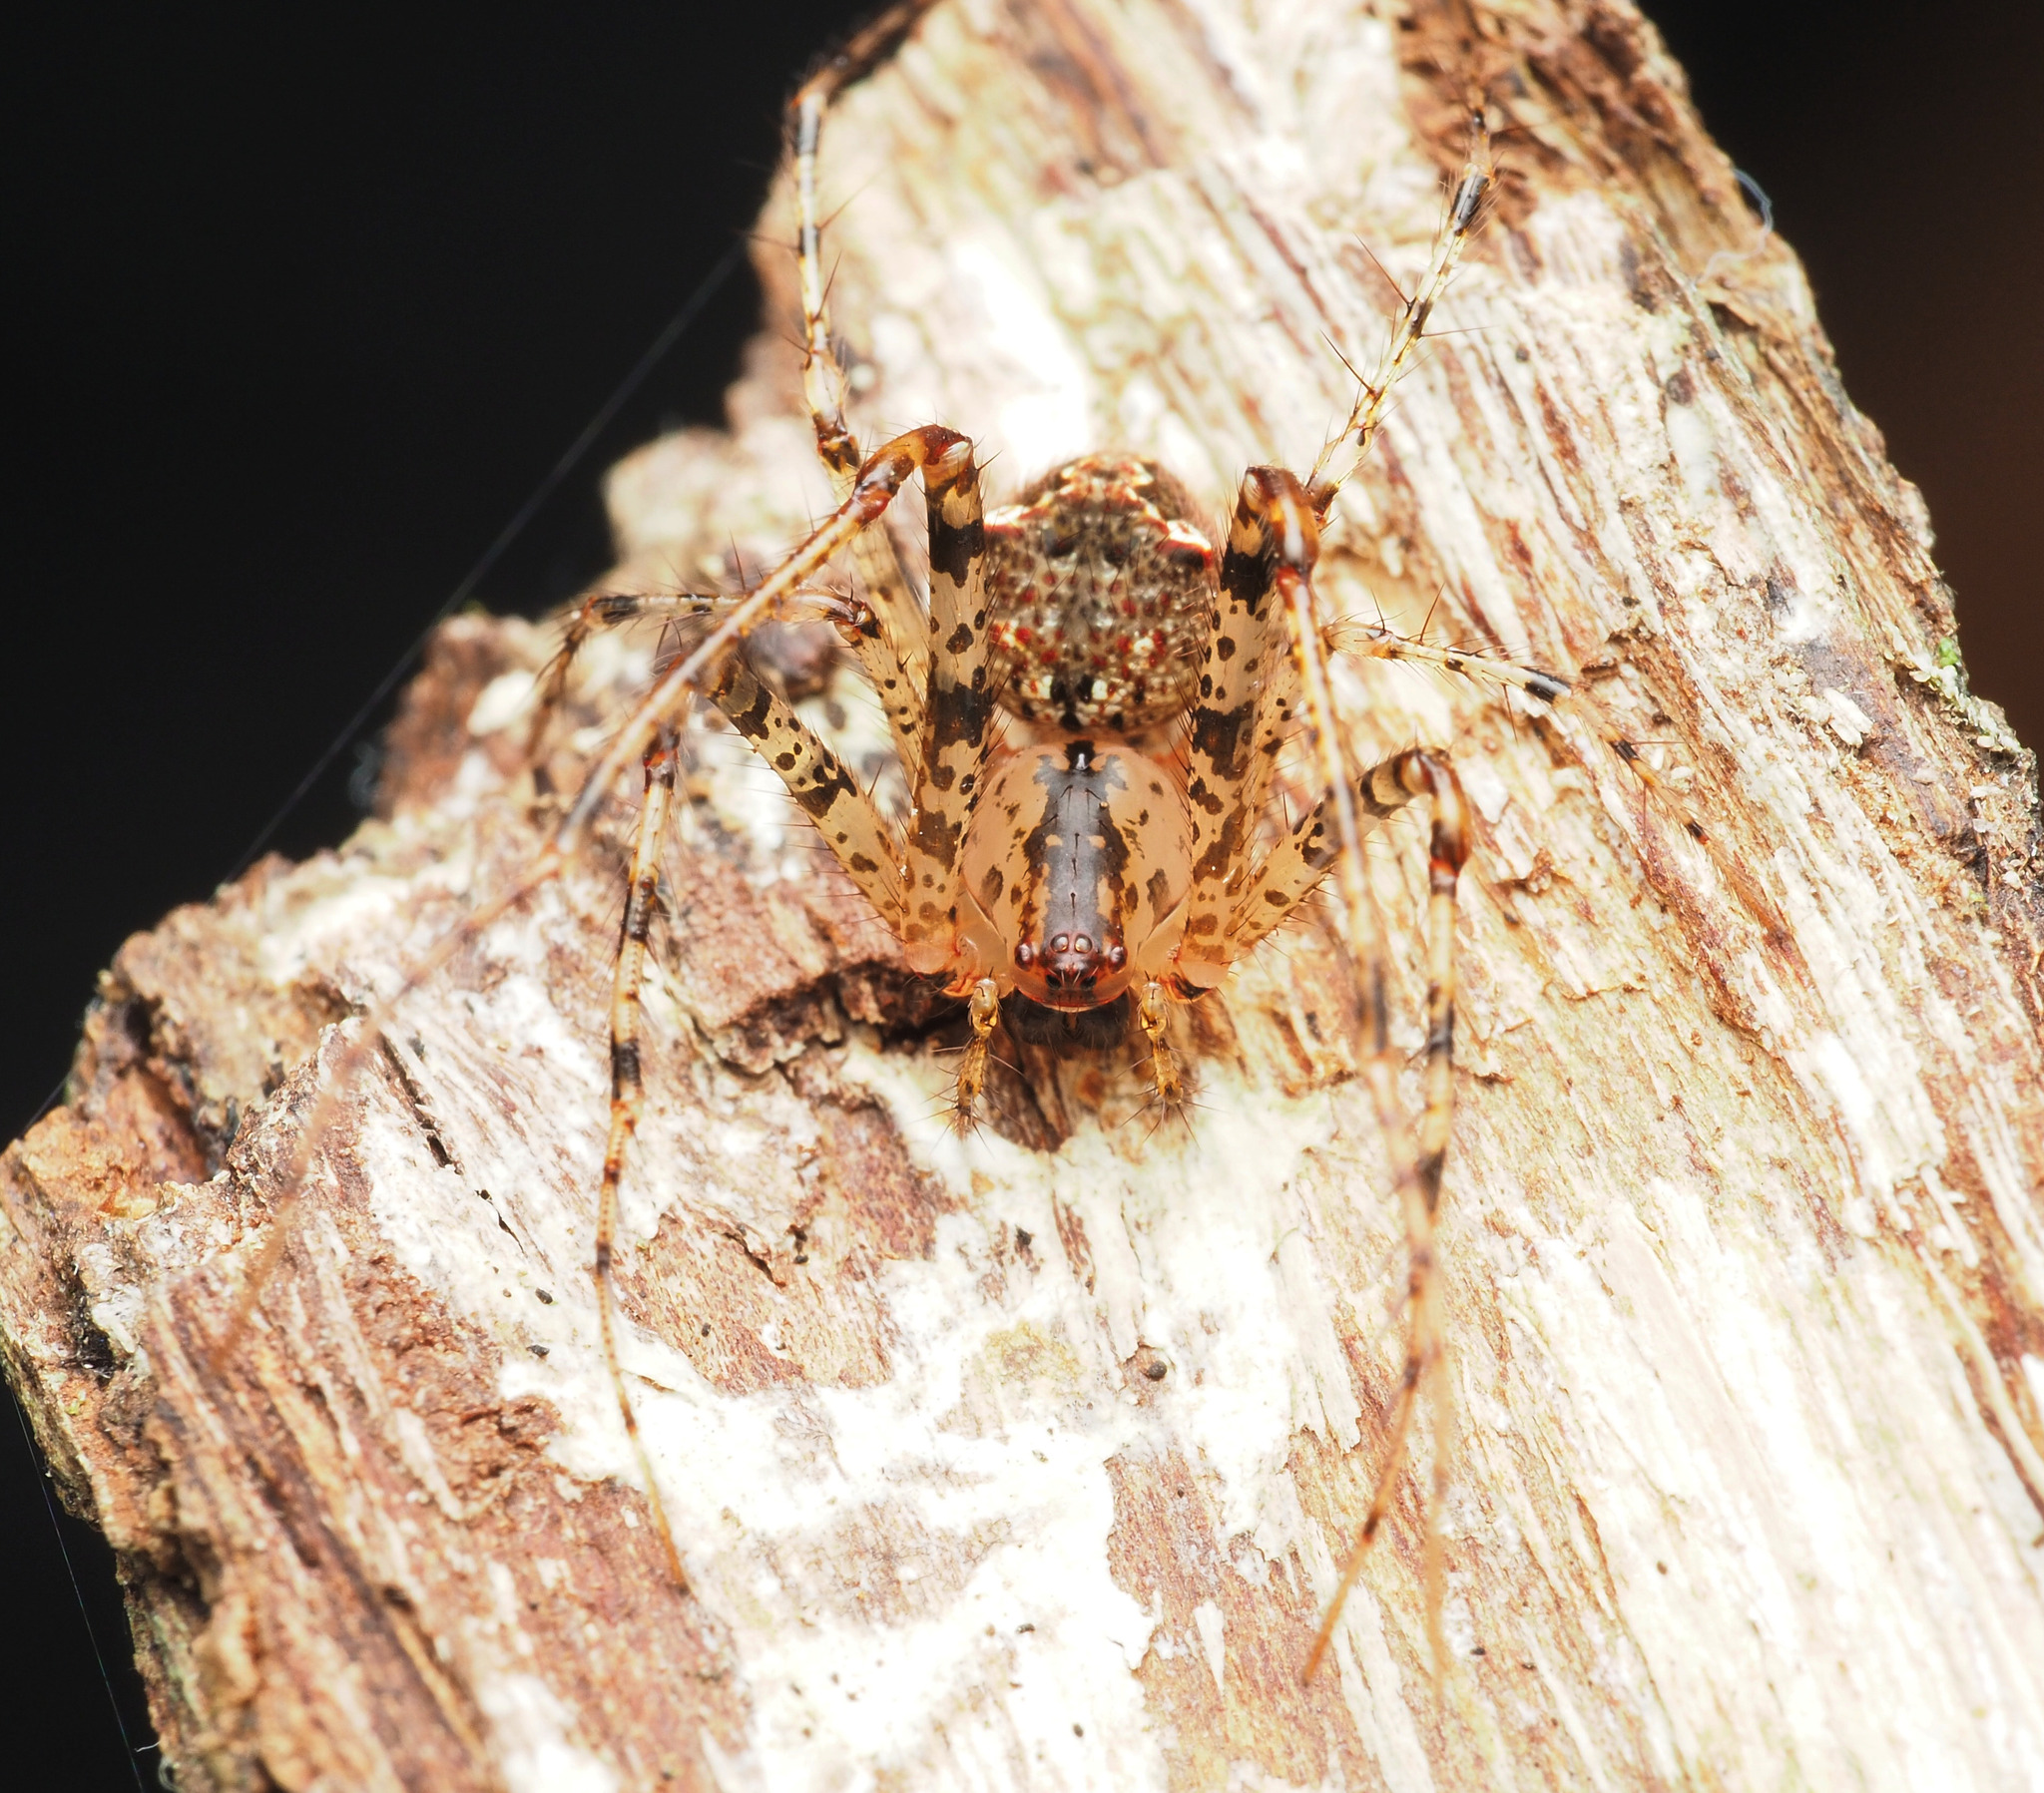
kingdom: Animalia
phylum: Arthropoda
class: Arachnida
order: Araneae
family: Mimetidae
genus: Australomimetus
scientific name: Australomimetus
